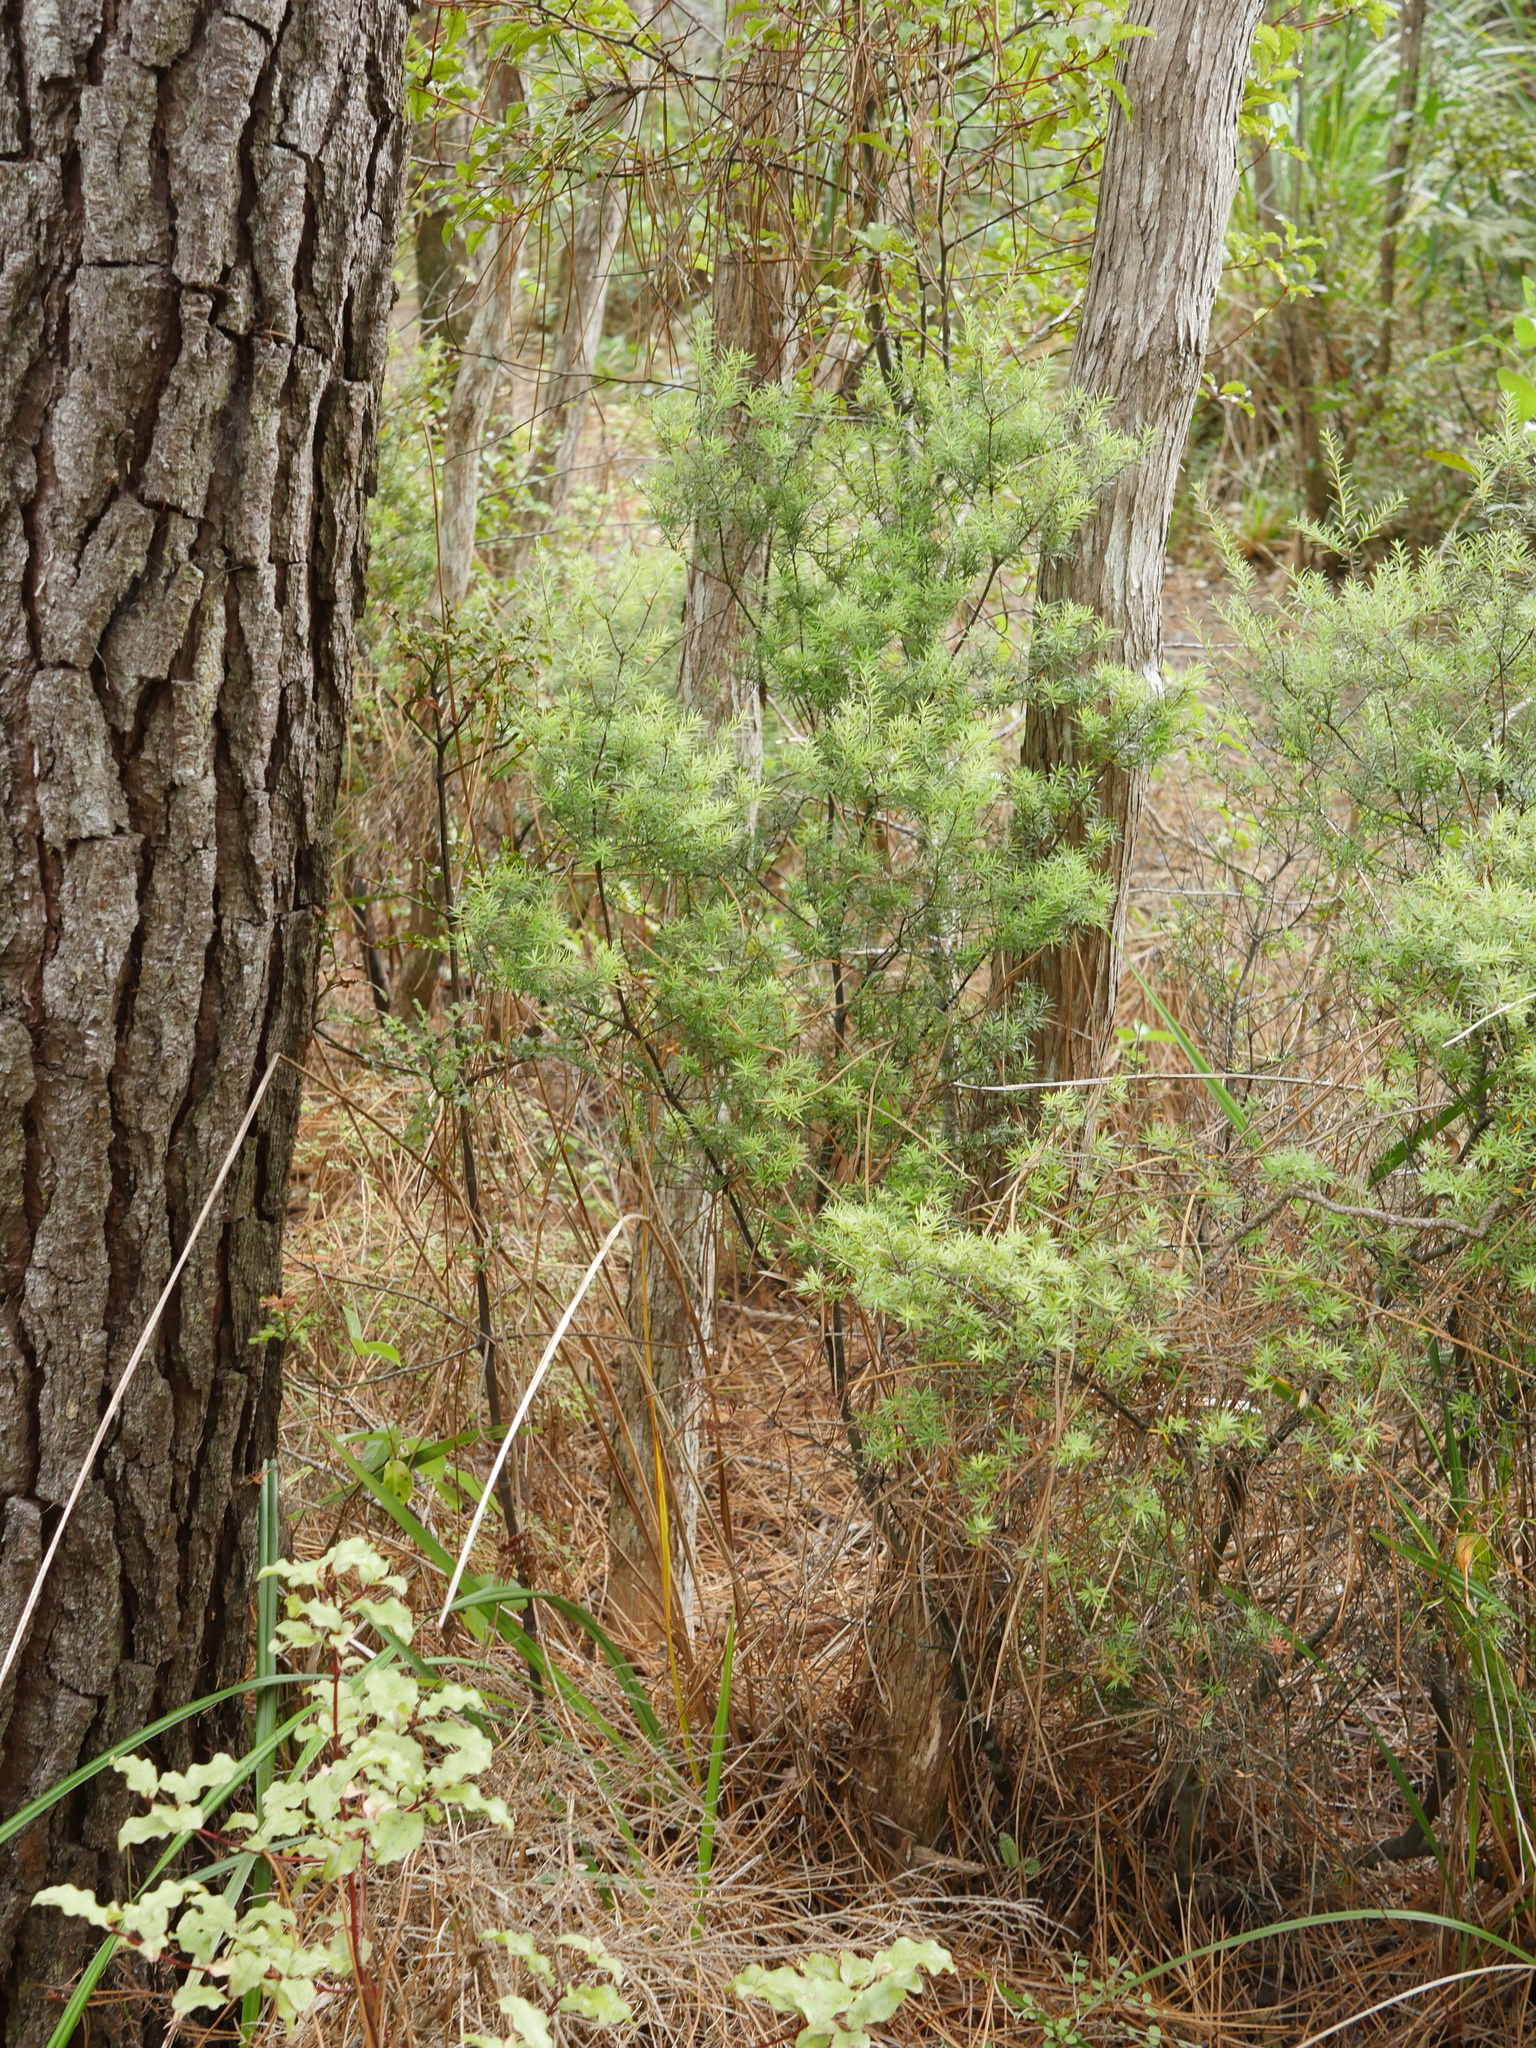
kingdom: Plantae
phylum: Tracheophyta
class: Magnoliopsida
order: Ericales
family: Ericaceae
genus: Leptecophylla
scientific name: Leptecophylla juniperina
